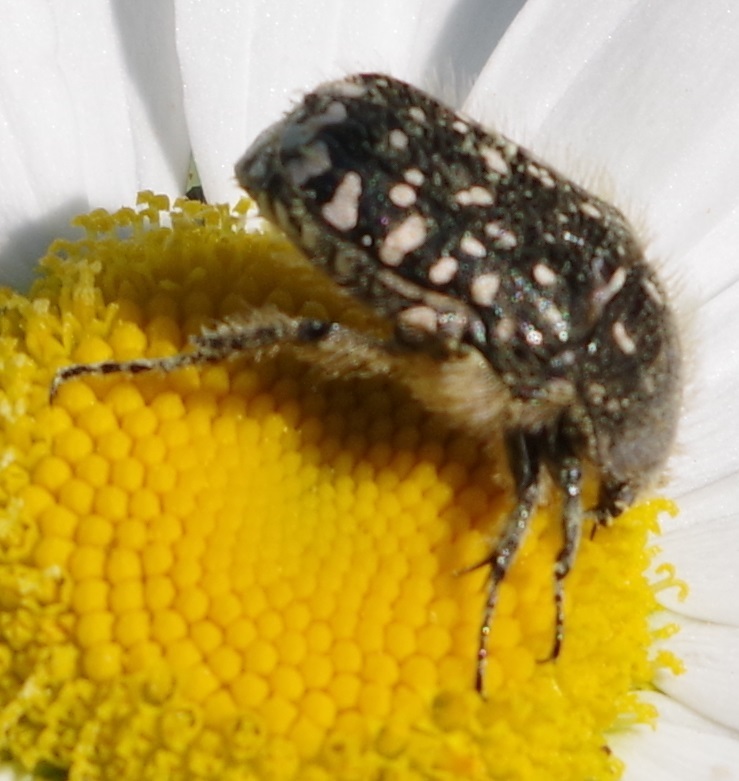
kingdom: Animalia
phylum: Arthropoda
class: Insecta
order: Coleoptera
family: Scarabaeidae
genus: Oxythyrea
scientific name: Oxythyrea funesta
